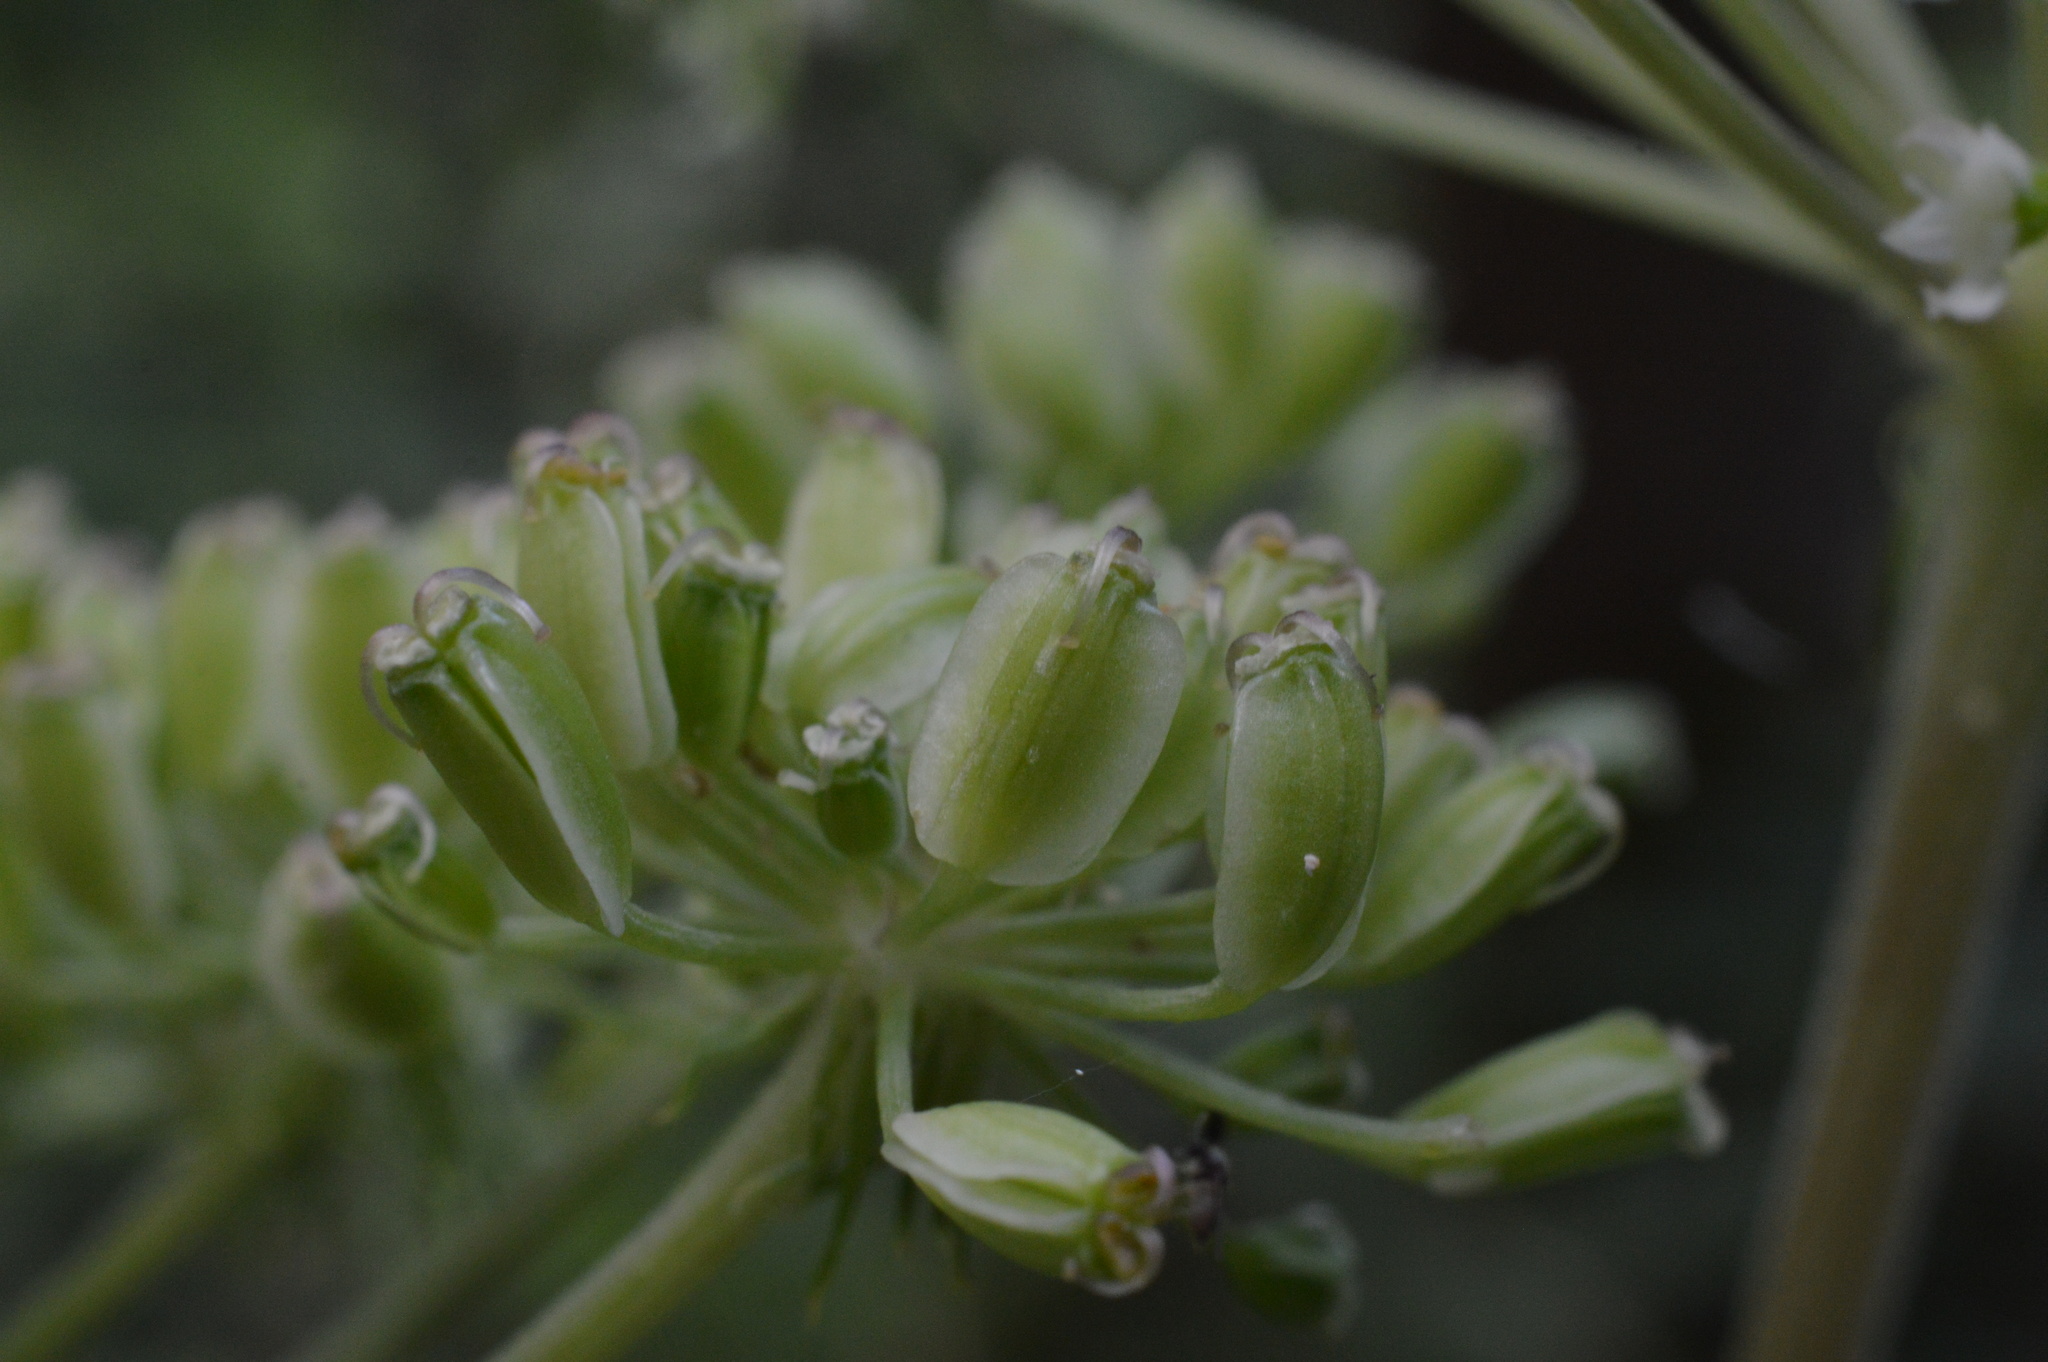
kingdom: Plantae
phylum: Tracheophyta
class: Magnoliopsida
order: Apiales
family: Apiaceae
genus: Angelica
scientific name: Angelica sylvestris
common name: Wild angelica
